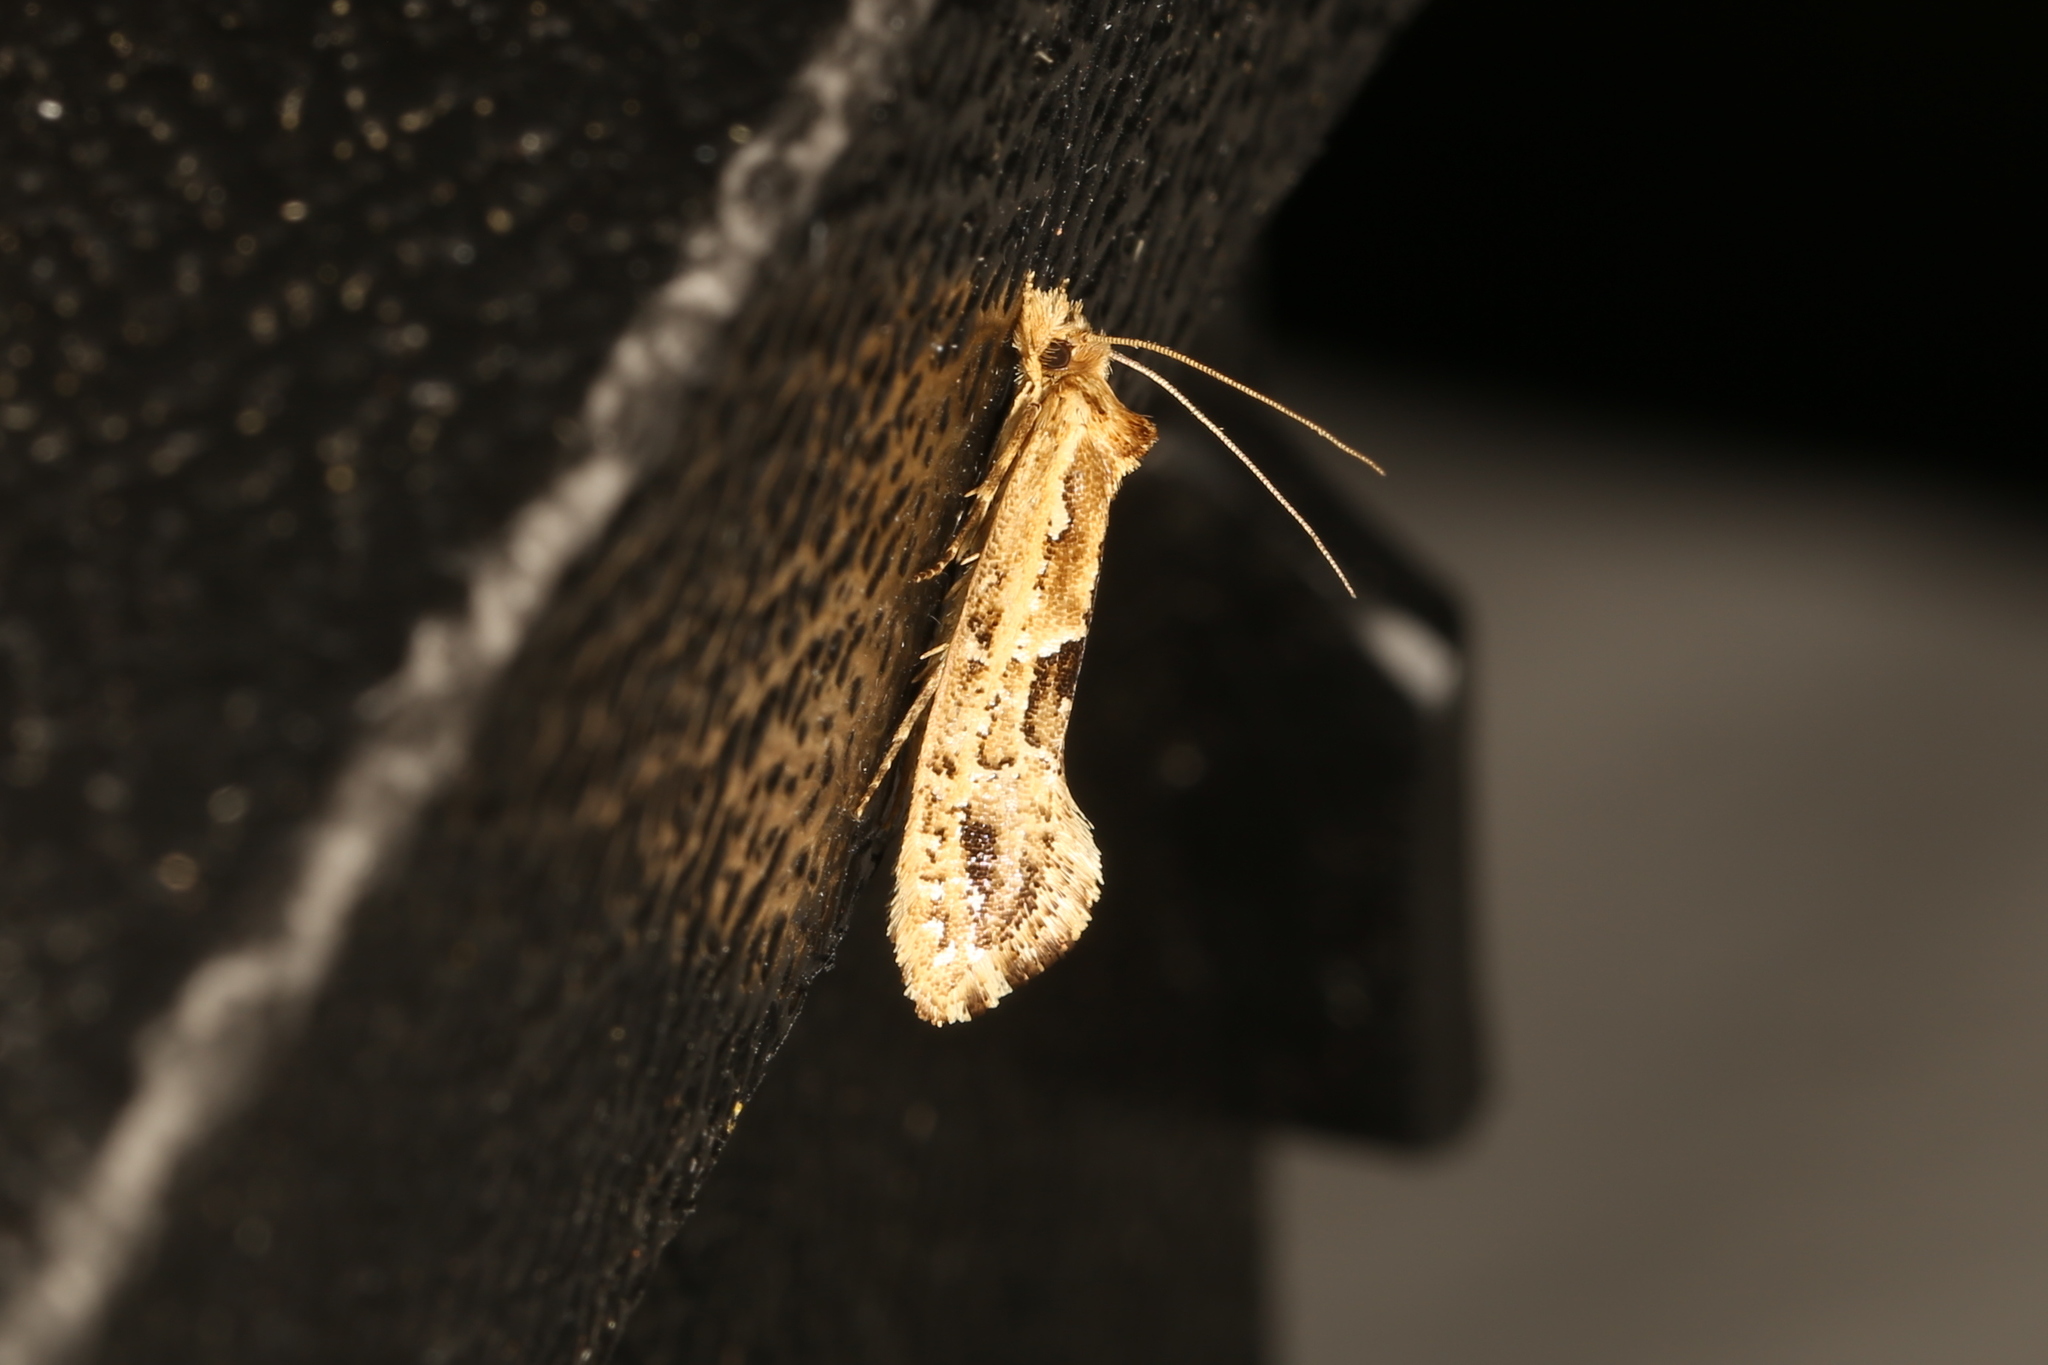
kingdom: Animalia
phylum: Arthropoda
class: Insecta
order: Lepidoptera
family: Tineidae
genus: Moerarchis
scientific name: Moerarchis inconcisella
